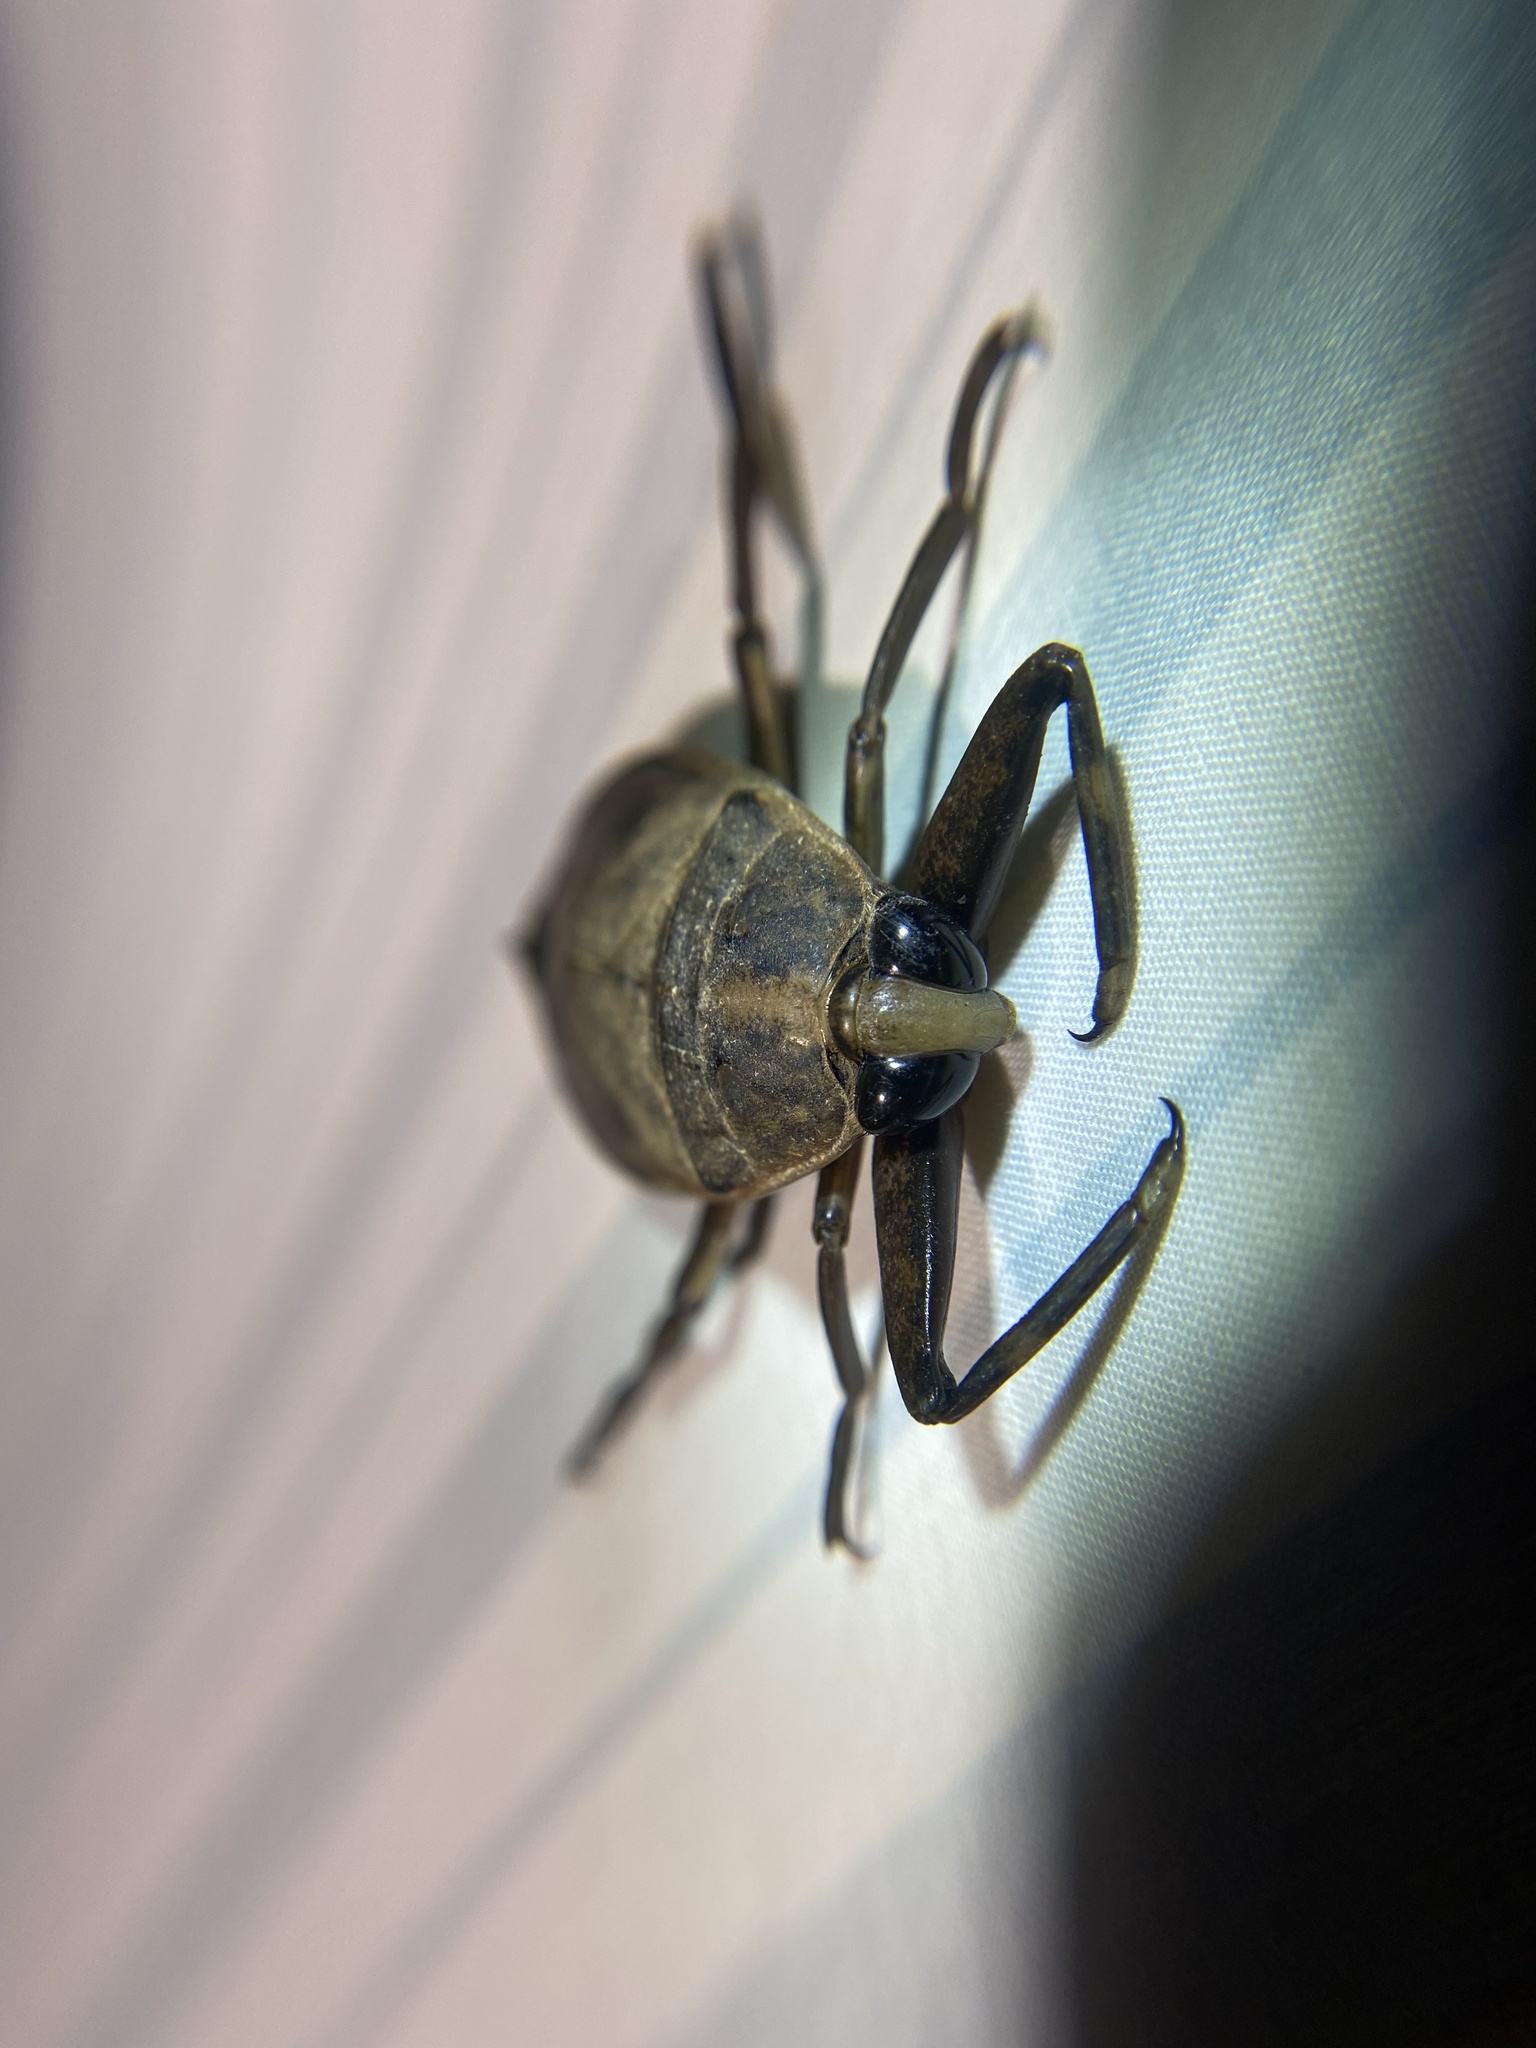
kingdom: Animalia
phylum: Arthropoda
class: Insecta
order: Hemiptera
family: Belostomatidae
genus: Benacus
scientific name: Benacus griseus
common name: Eastern toe-biter
